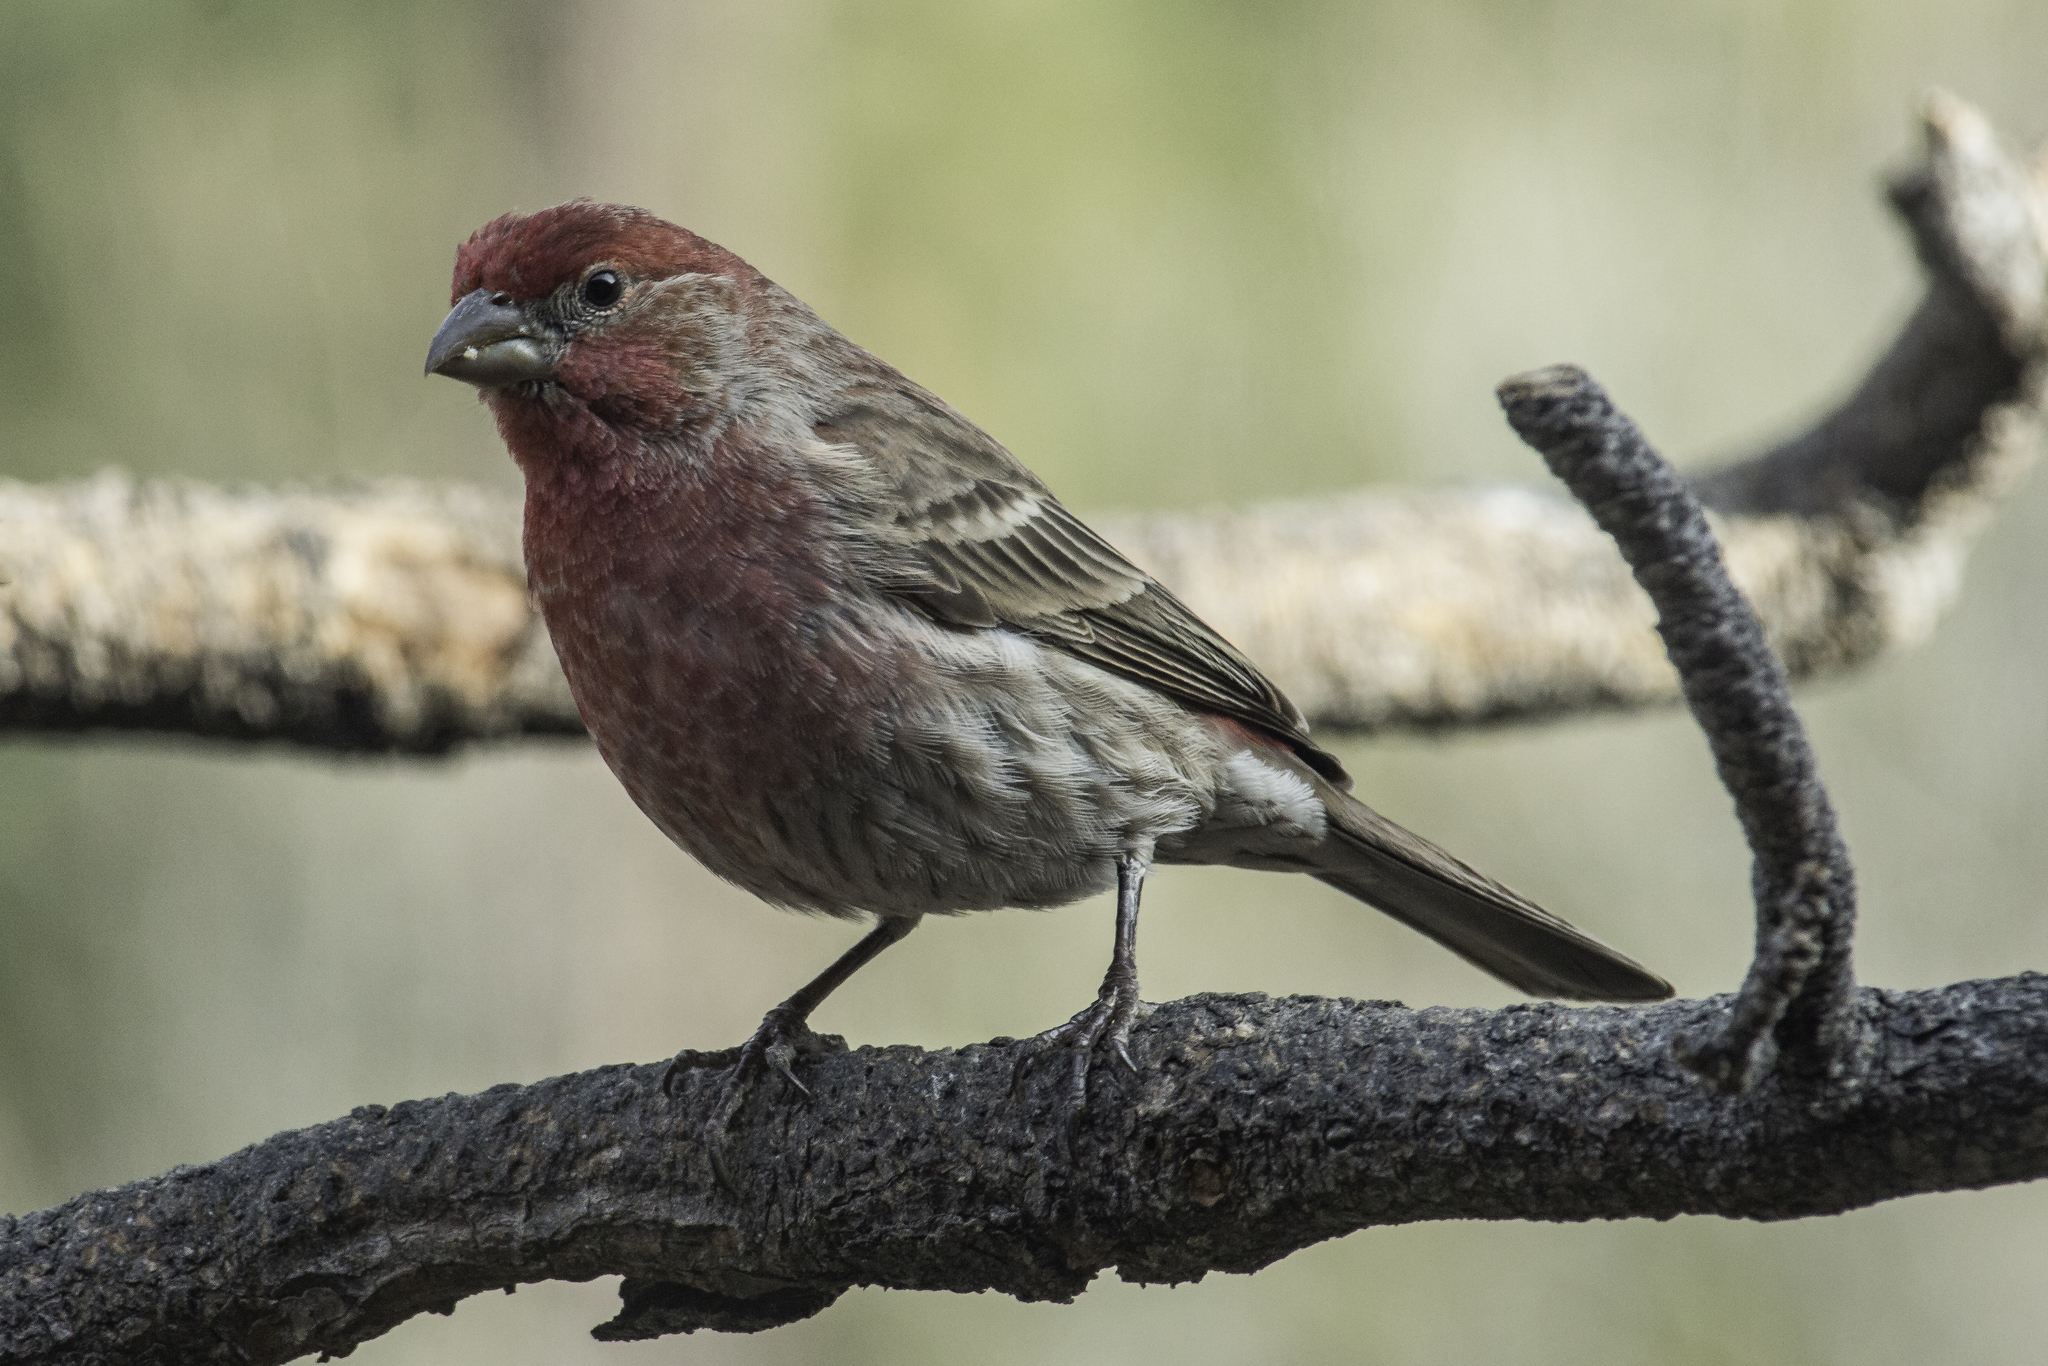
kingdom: Animalia
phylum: Chordata
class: Aves
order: Passeriformes
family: Fringillidae
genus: Haemorhous
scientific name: Haemorhous mexicanus
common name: House finch
